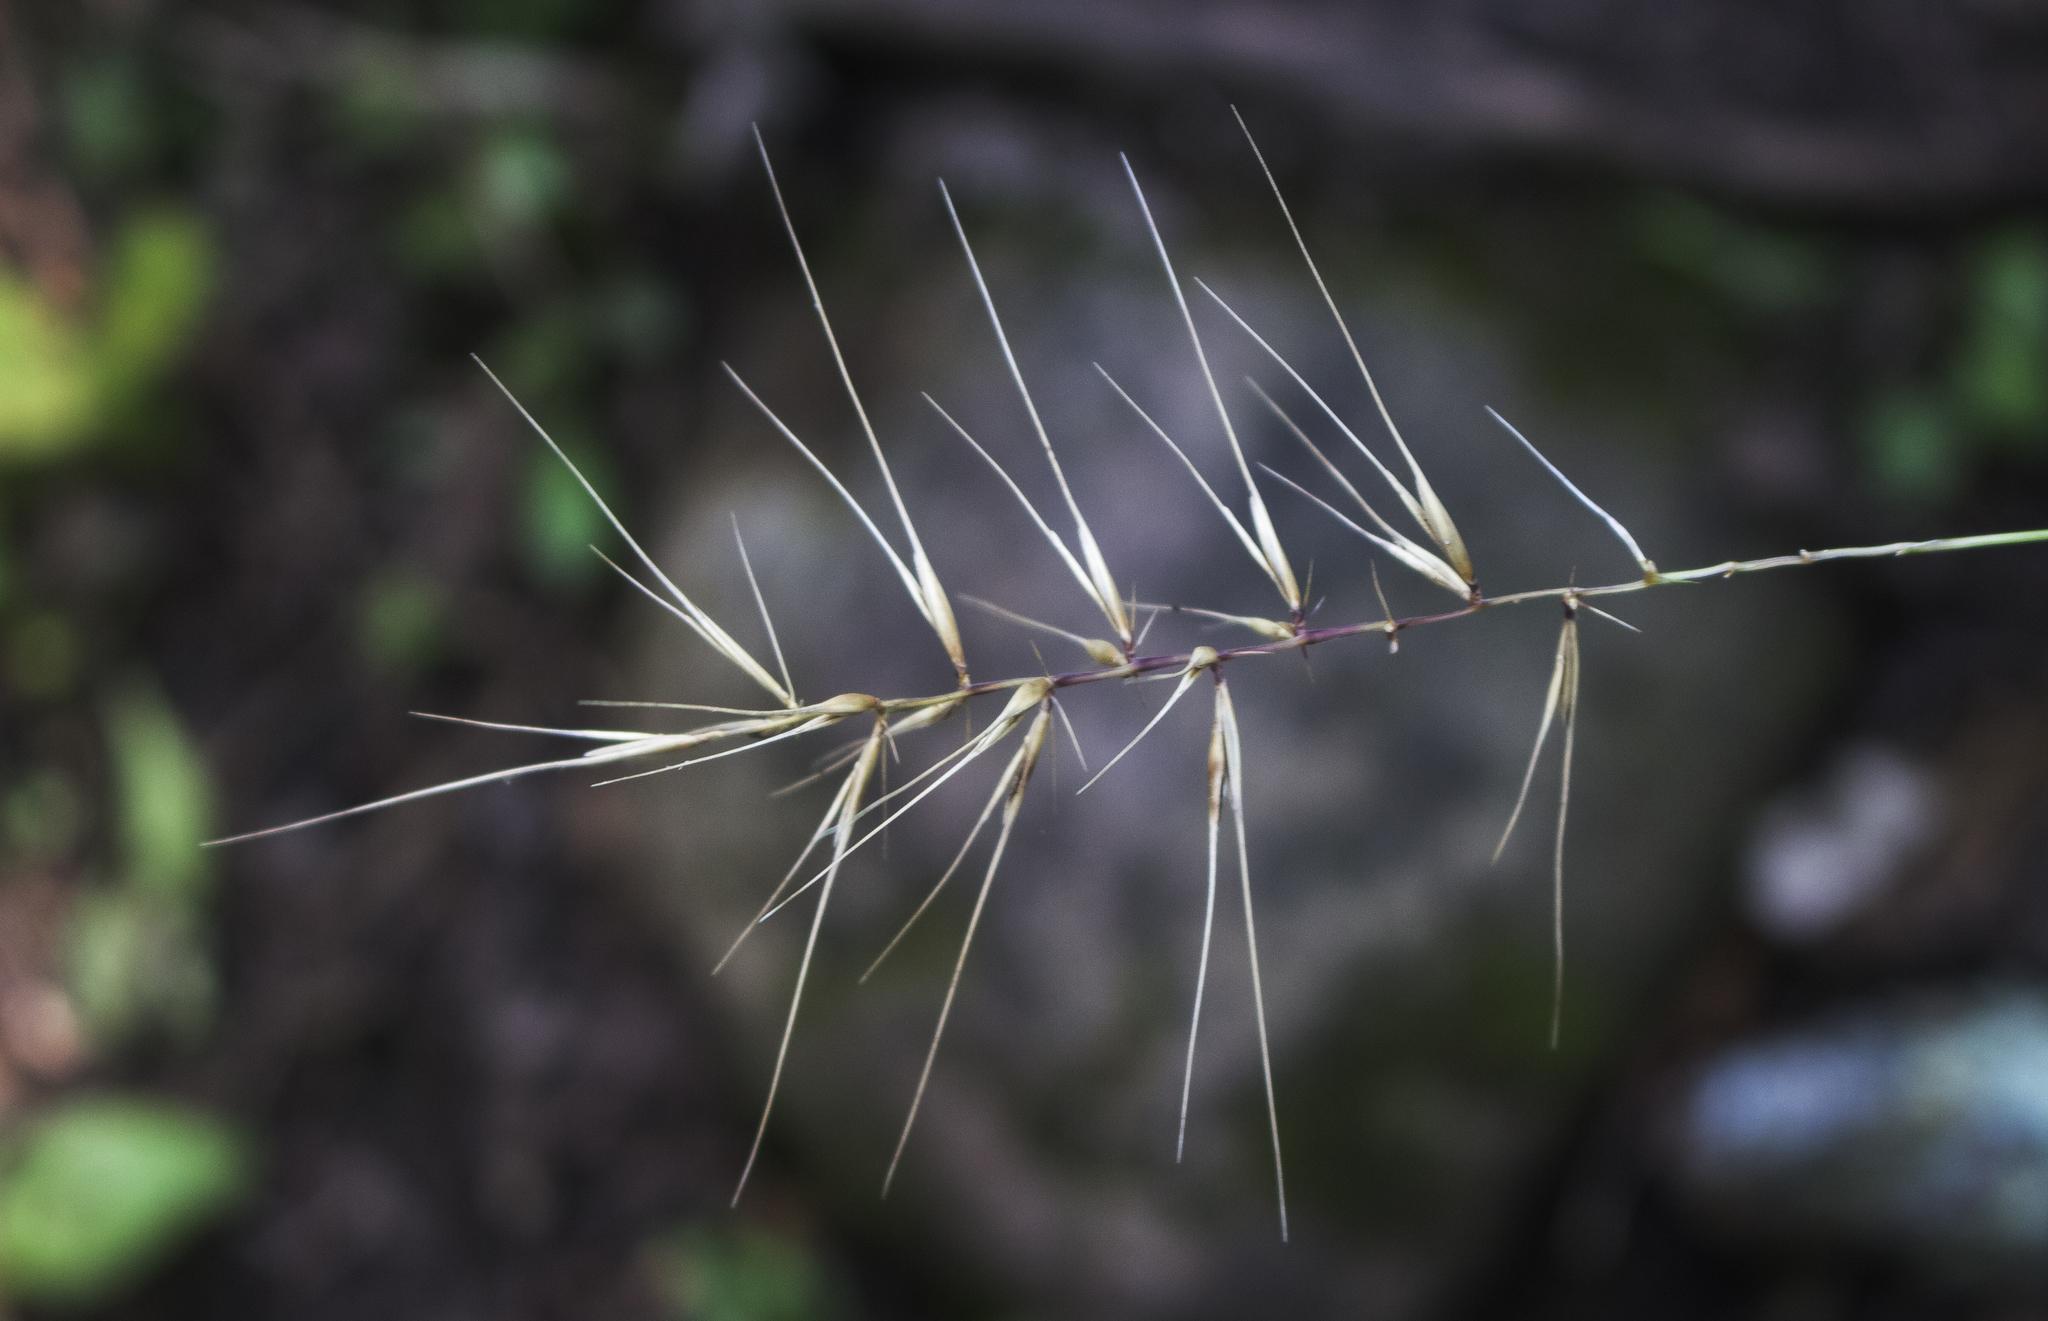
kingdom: Plantae
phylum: Tracheophyta
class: Liliopsida
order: Poales
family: Poaceae
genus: Elymus
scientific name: Elymus hystrix
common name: Bottlebrush grass
